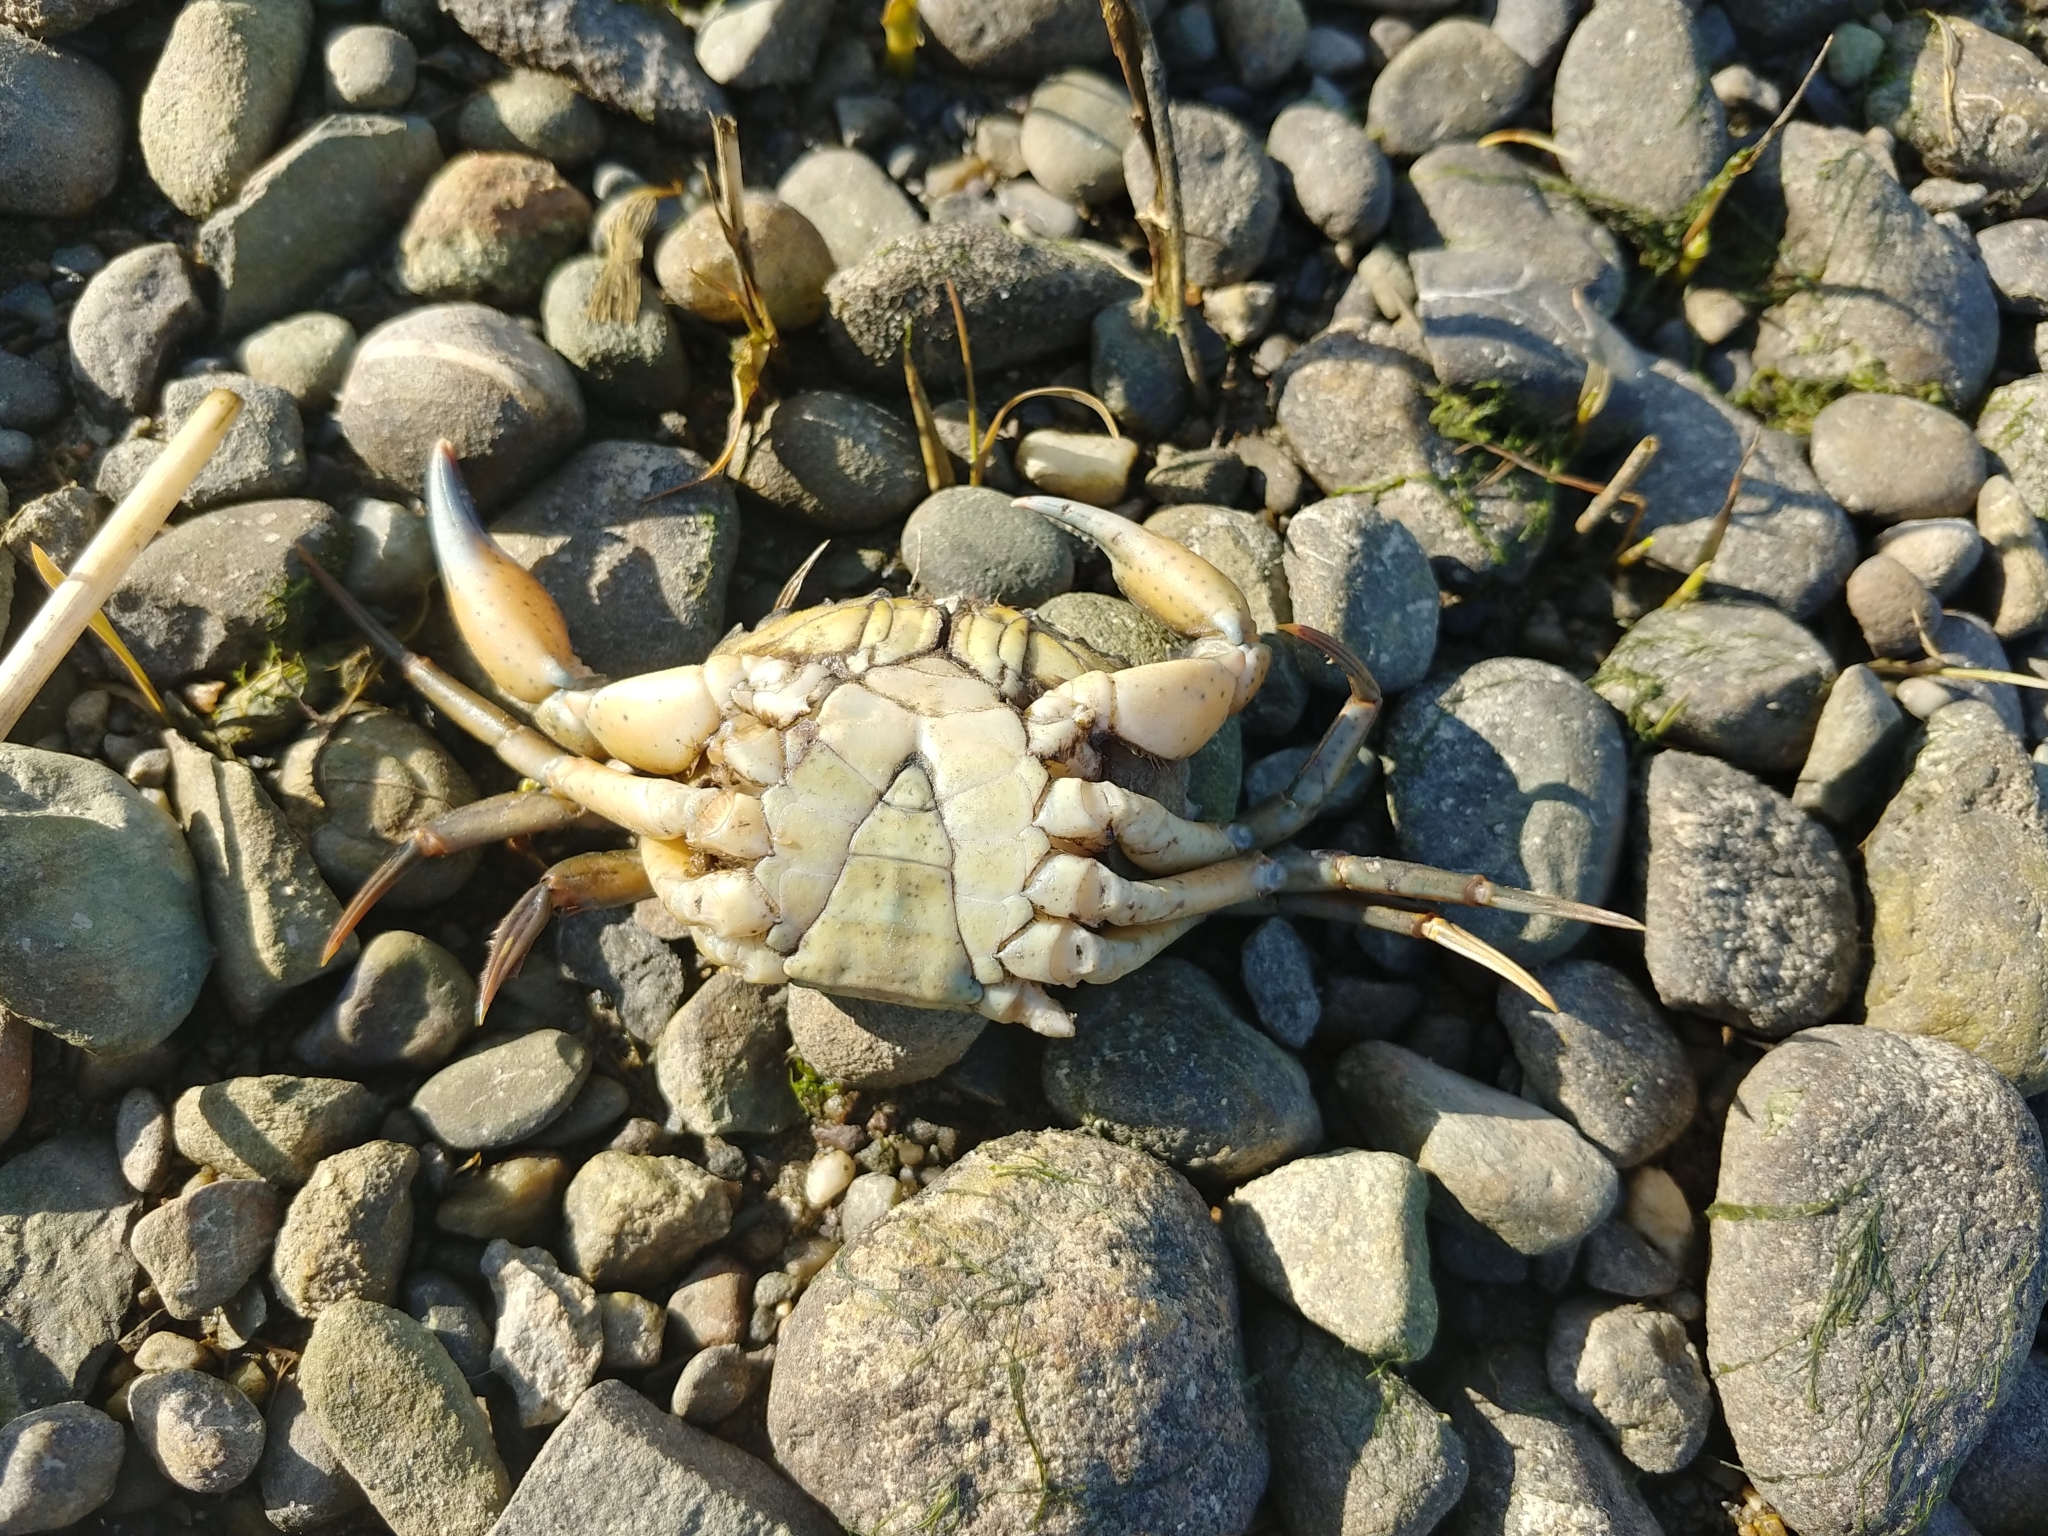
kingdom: Animalia
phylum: Arthropoda
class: Malacostraca
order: Decapoda
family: Carcinidae
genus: Carcinus
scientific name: Carcinus maenas
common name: European green crab
